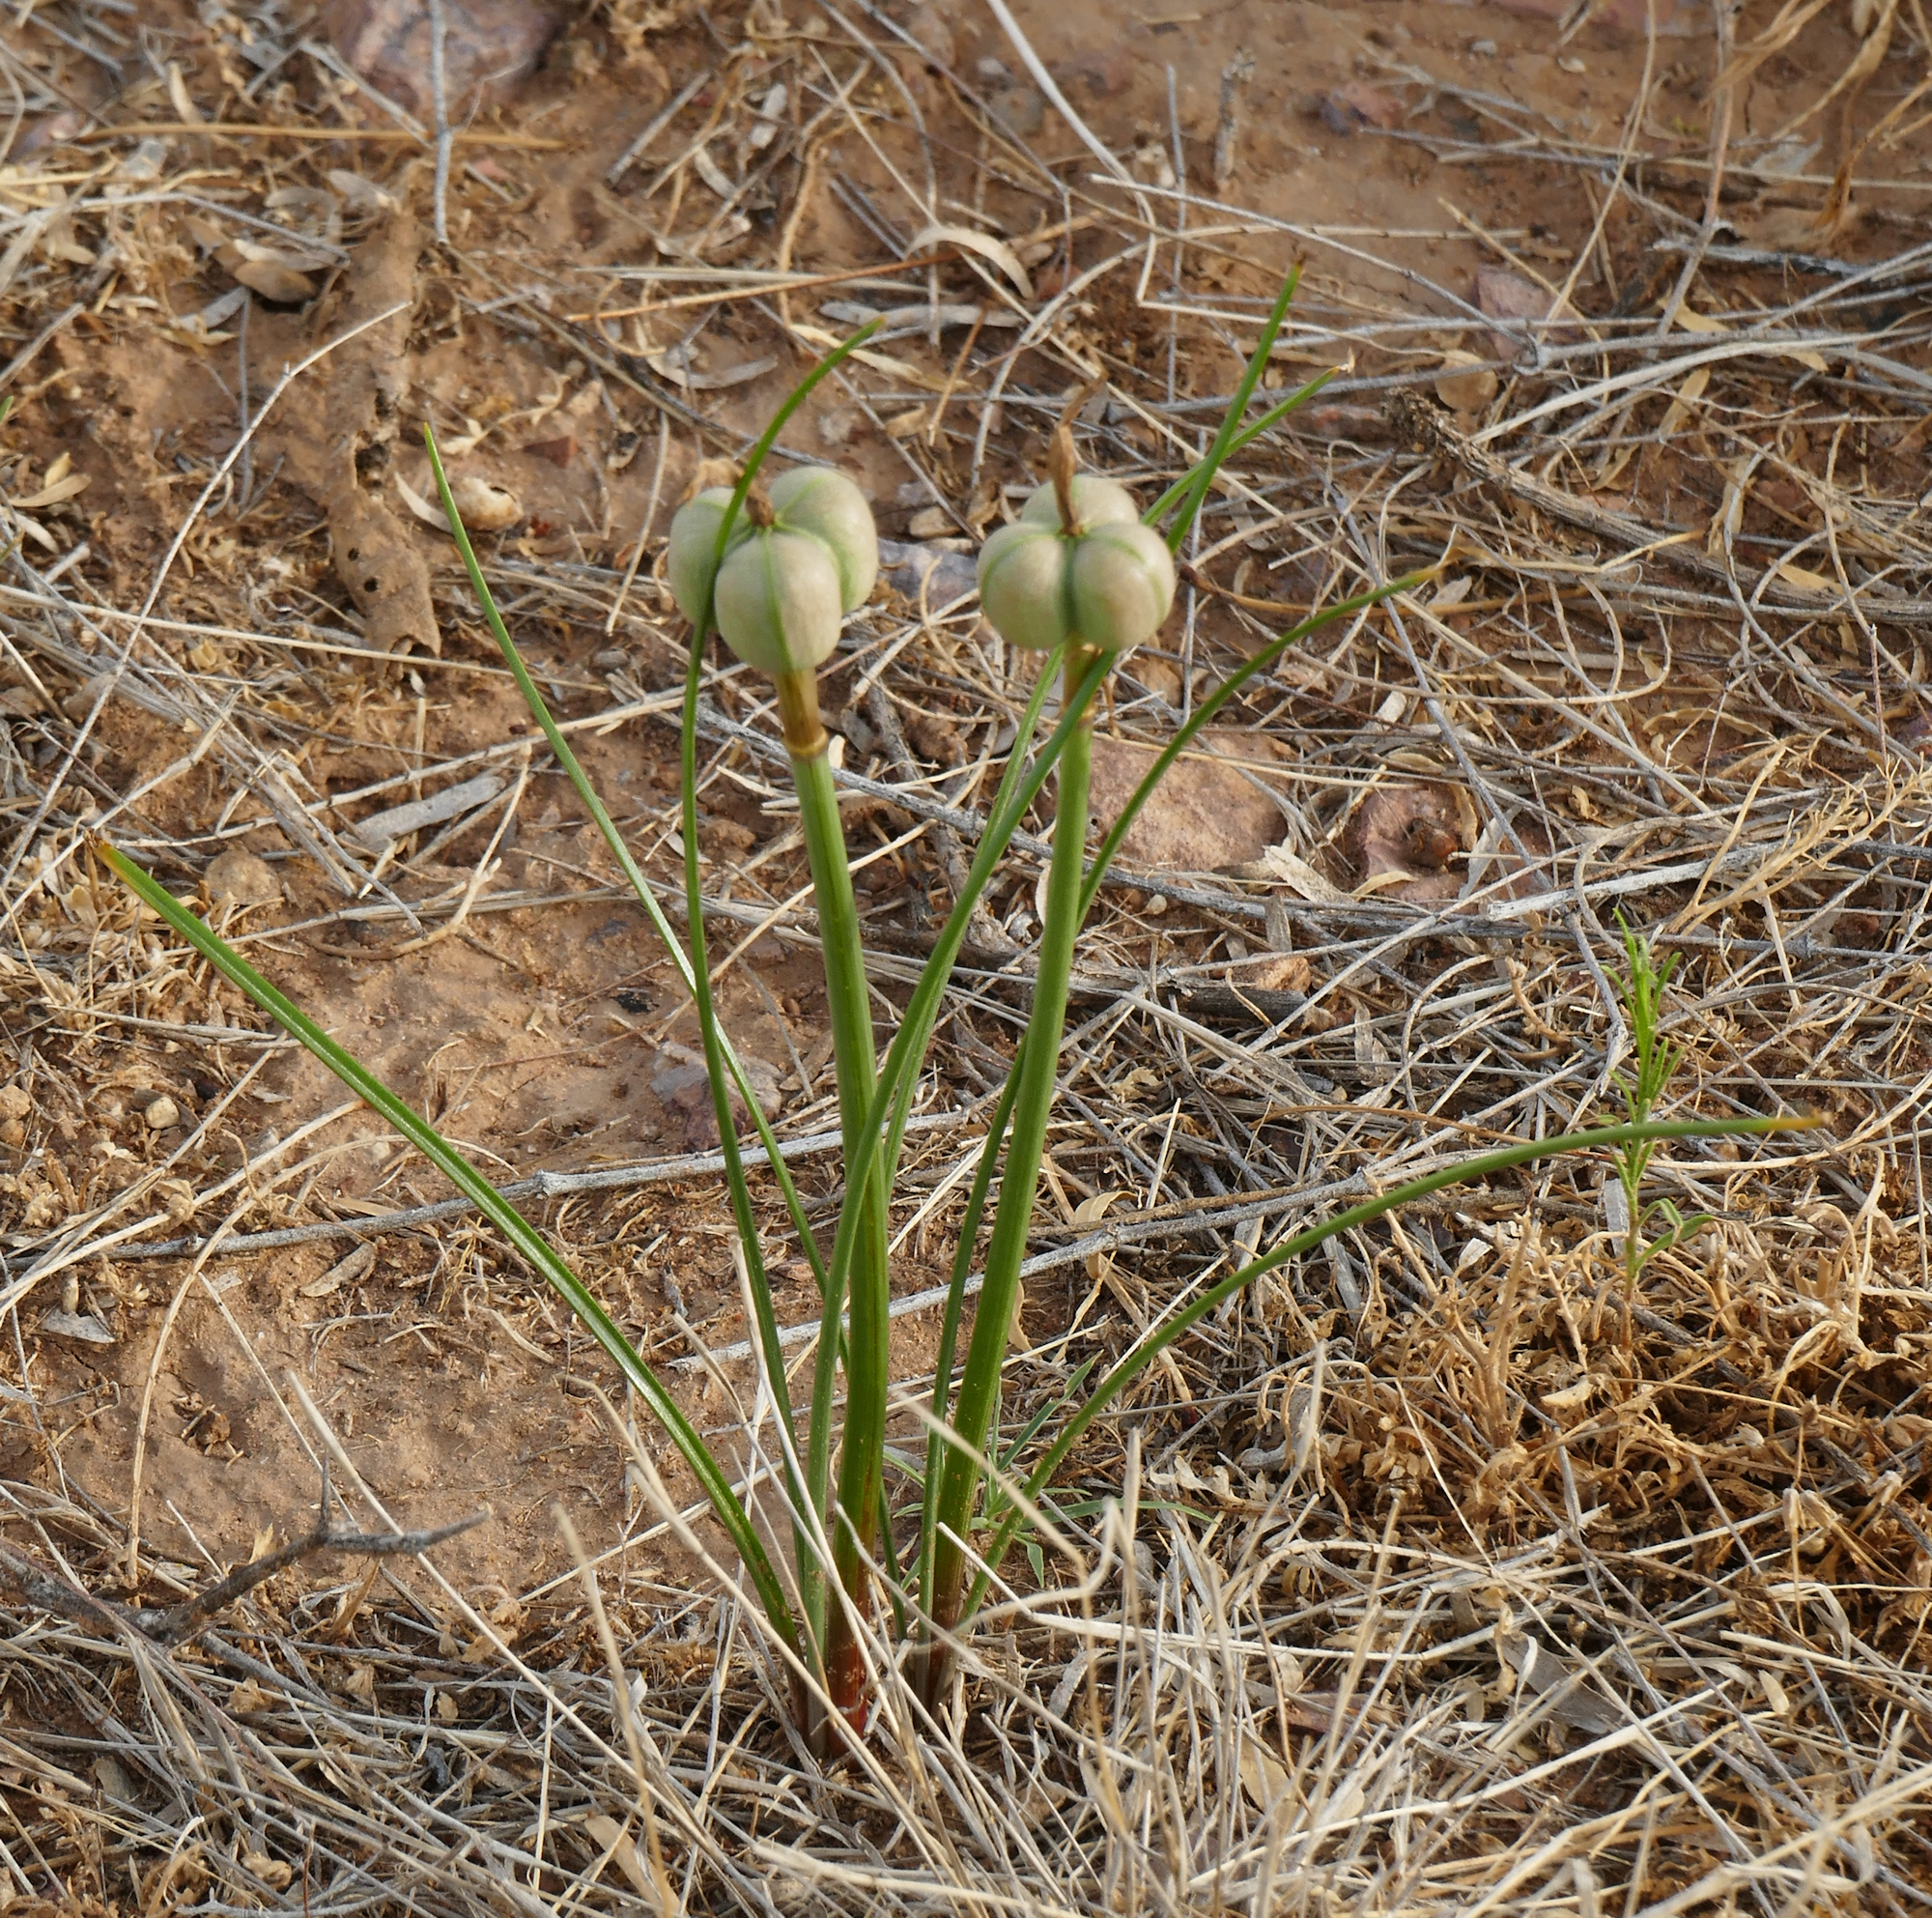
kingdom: Plantae
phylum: Tracheophyta
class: Liliopsida
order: Asparagales
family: Amaryllidaceae
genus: Zephyranthes
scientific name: Zephyranthes longifolia
